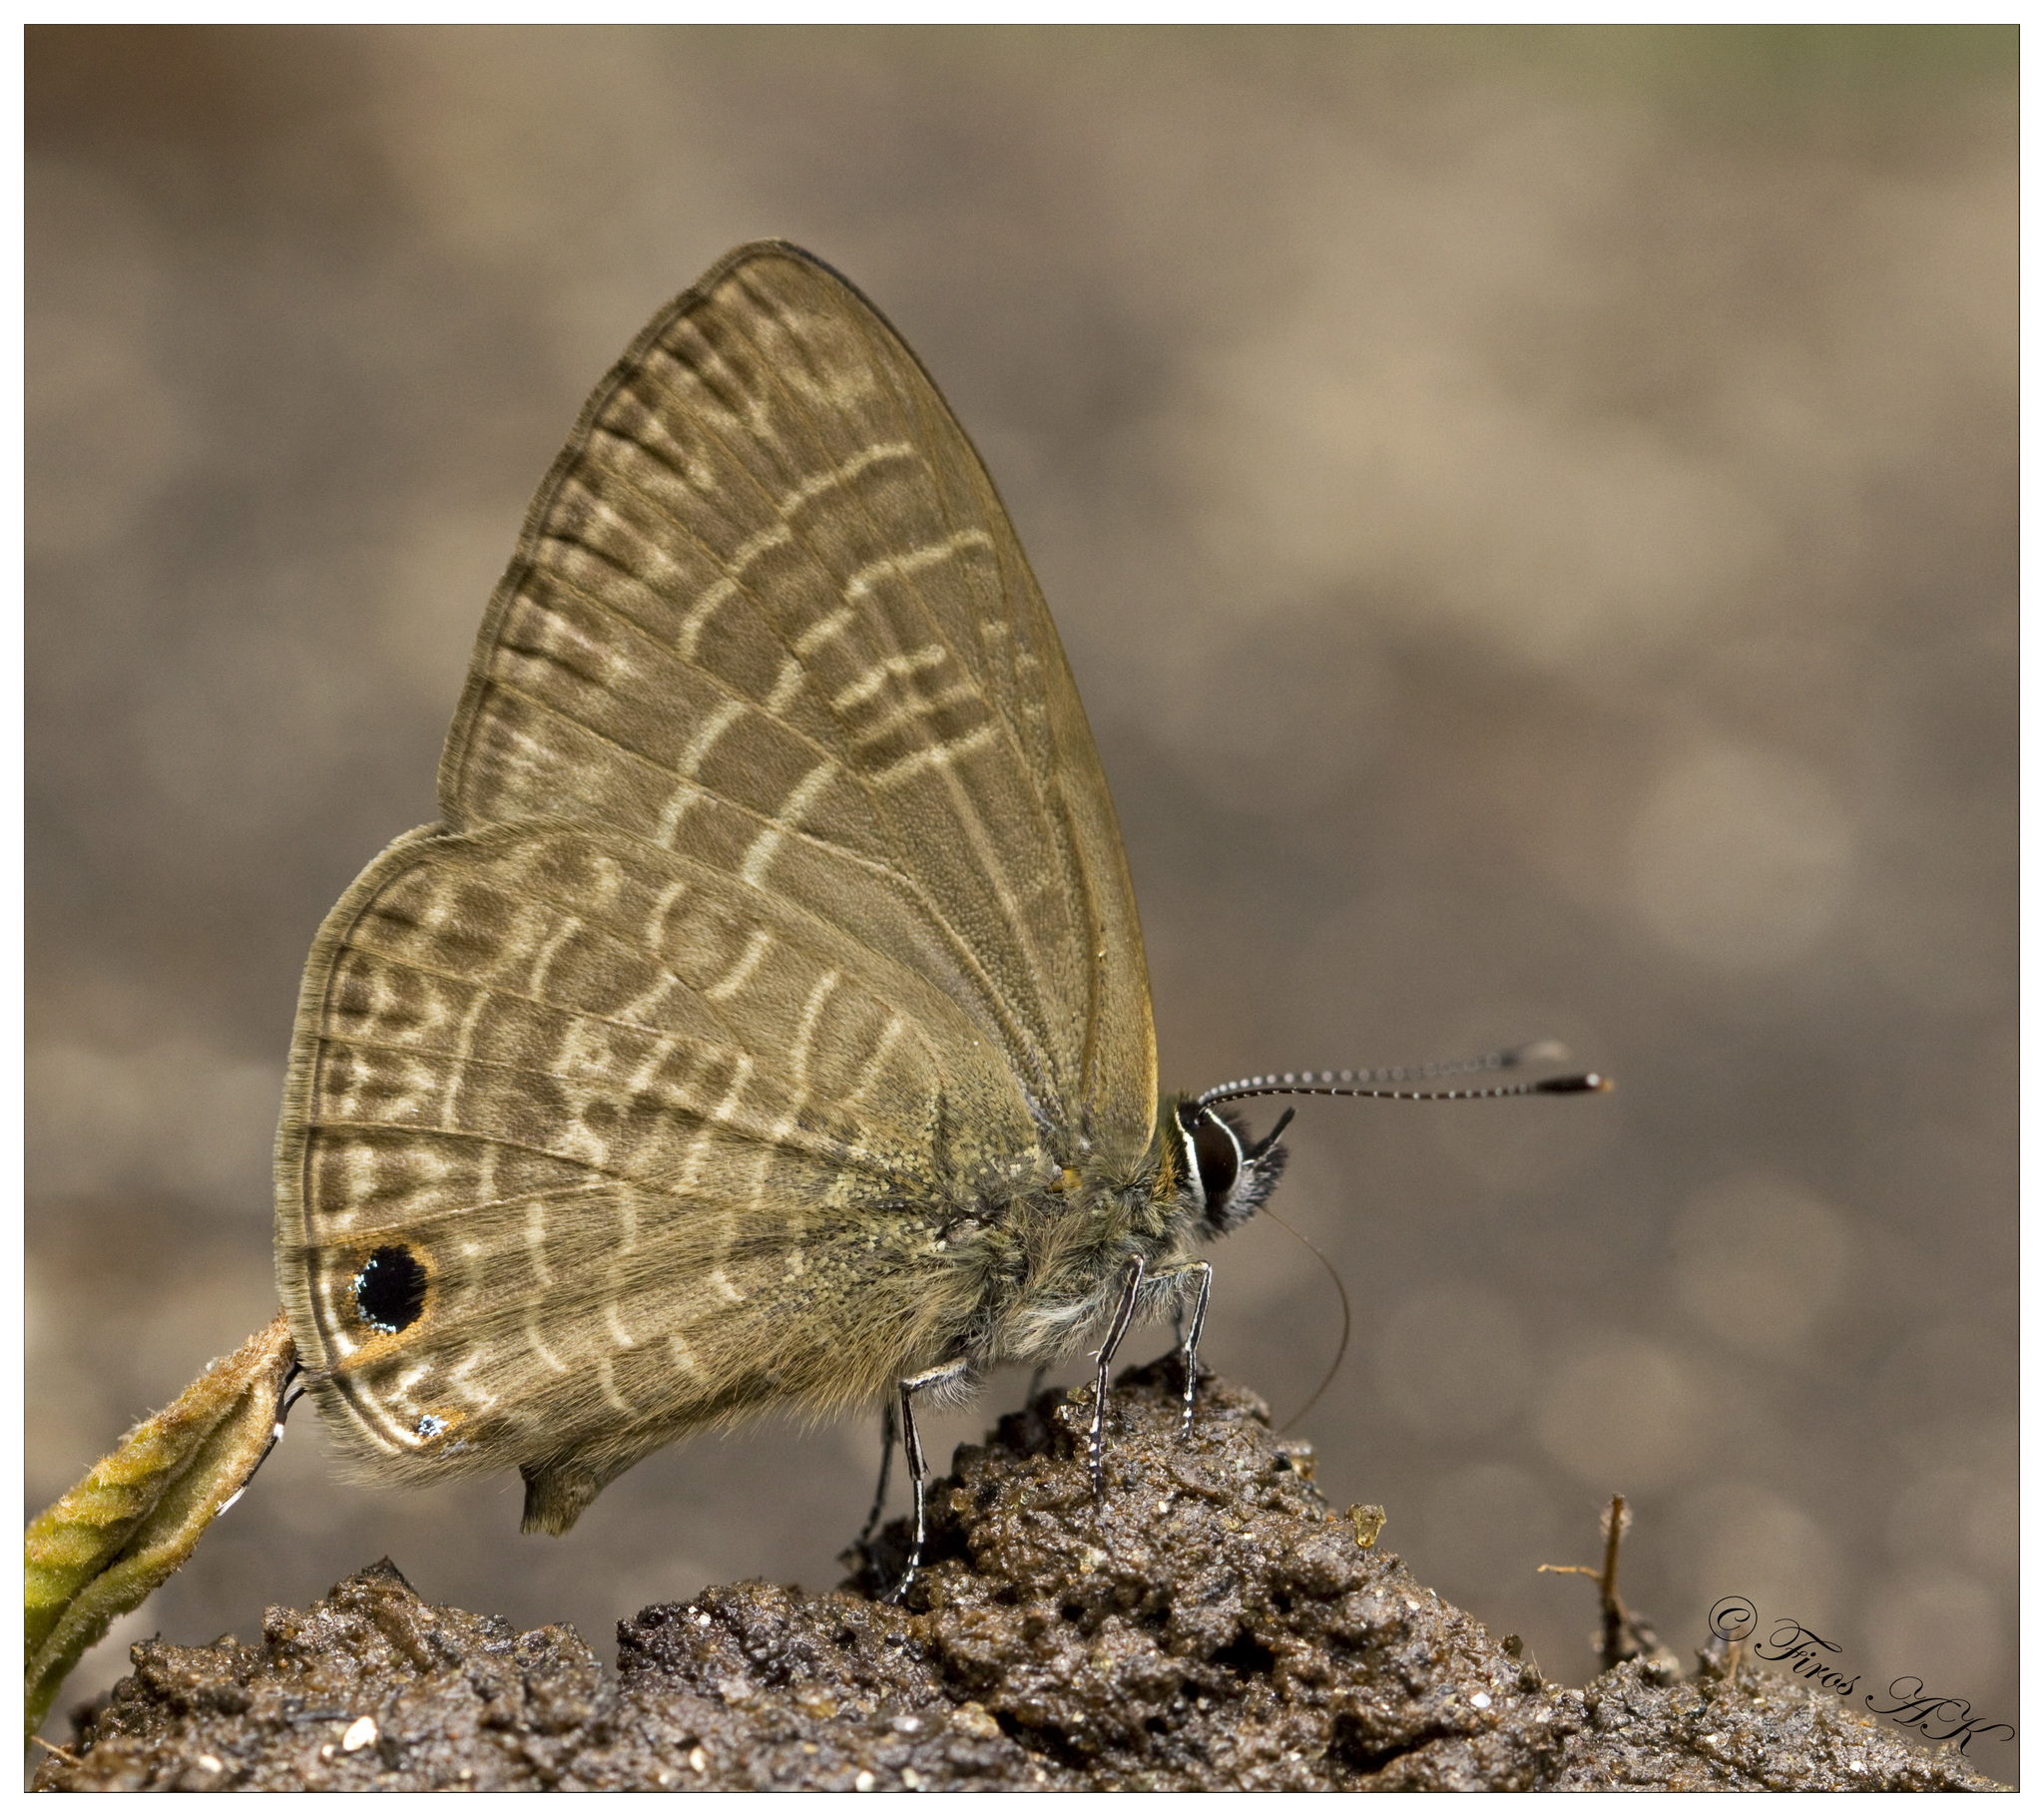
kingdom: Animalia
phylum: Arthropoda
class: Insecta
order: Lepidoptera
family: Lycaenidae
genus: Nacaduba
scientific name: Nacaduba hermus
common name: Pale four-line blue
